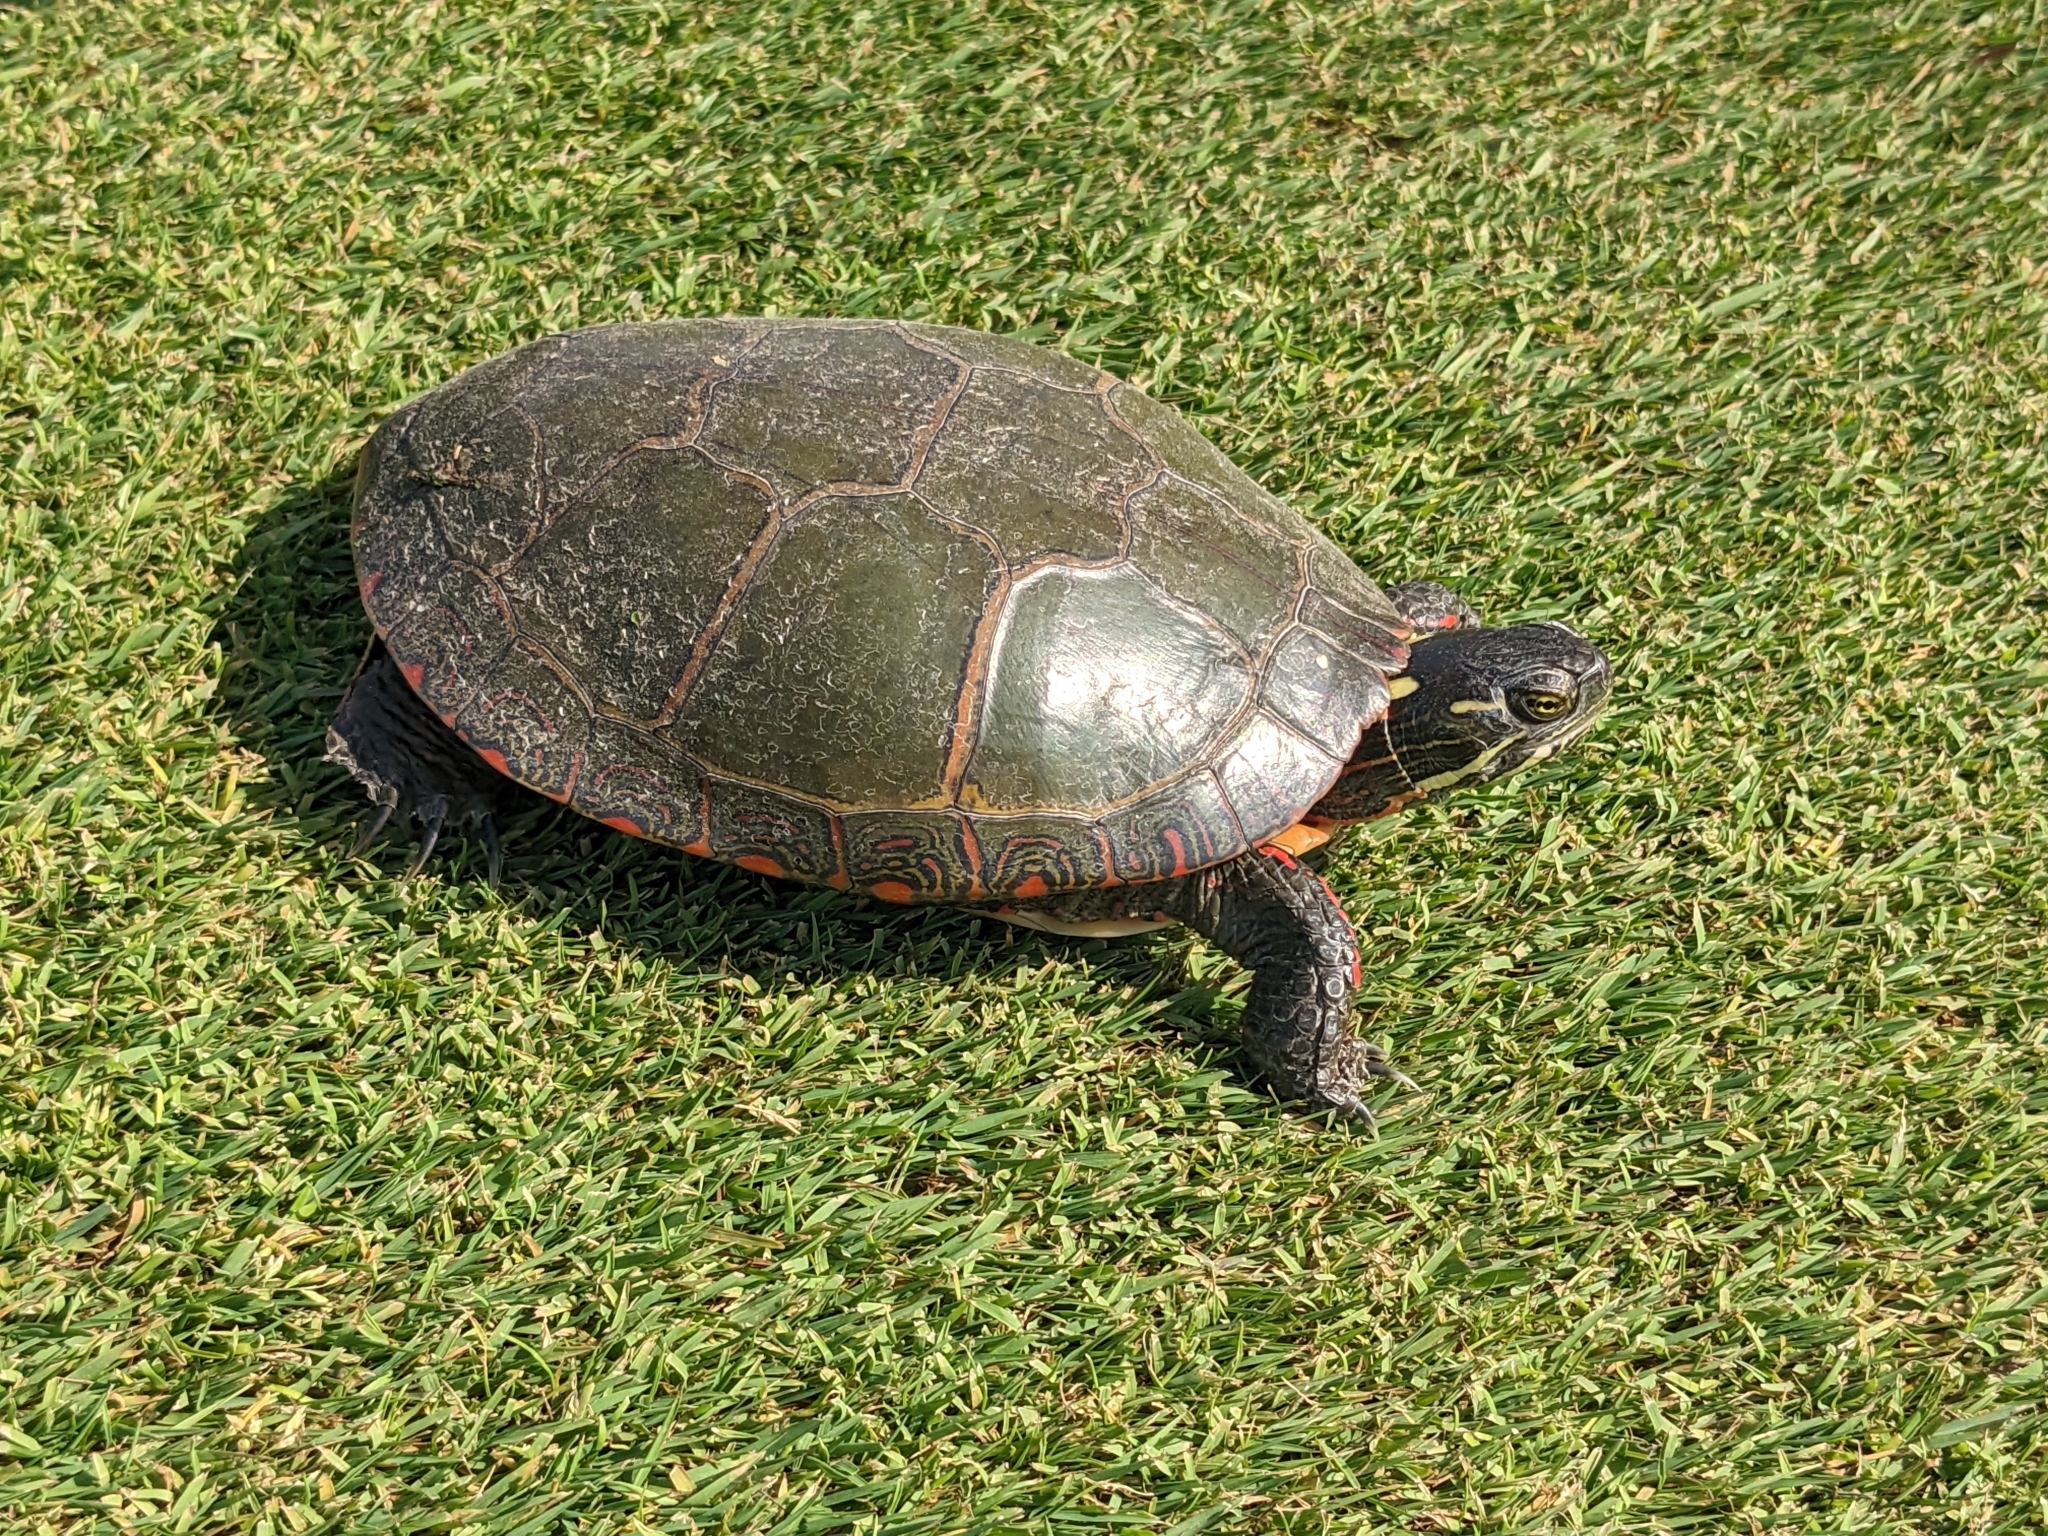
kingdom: Animalia
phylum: Chordata
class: Testudines
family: Emydidae
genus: Chrysemys
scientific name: Chrysemys picta
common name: Painted turtle
